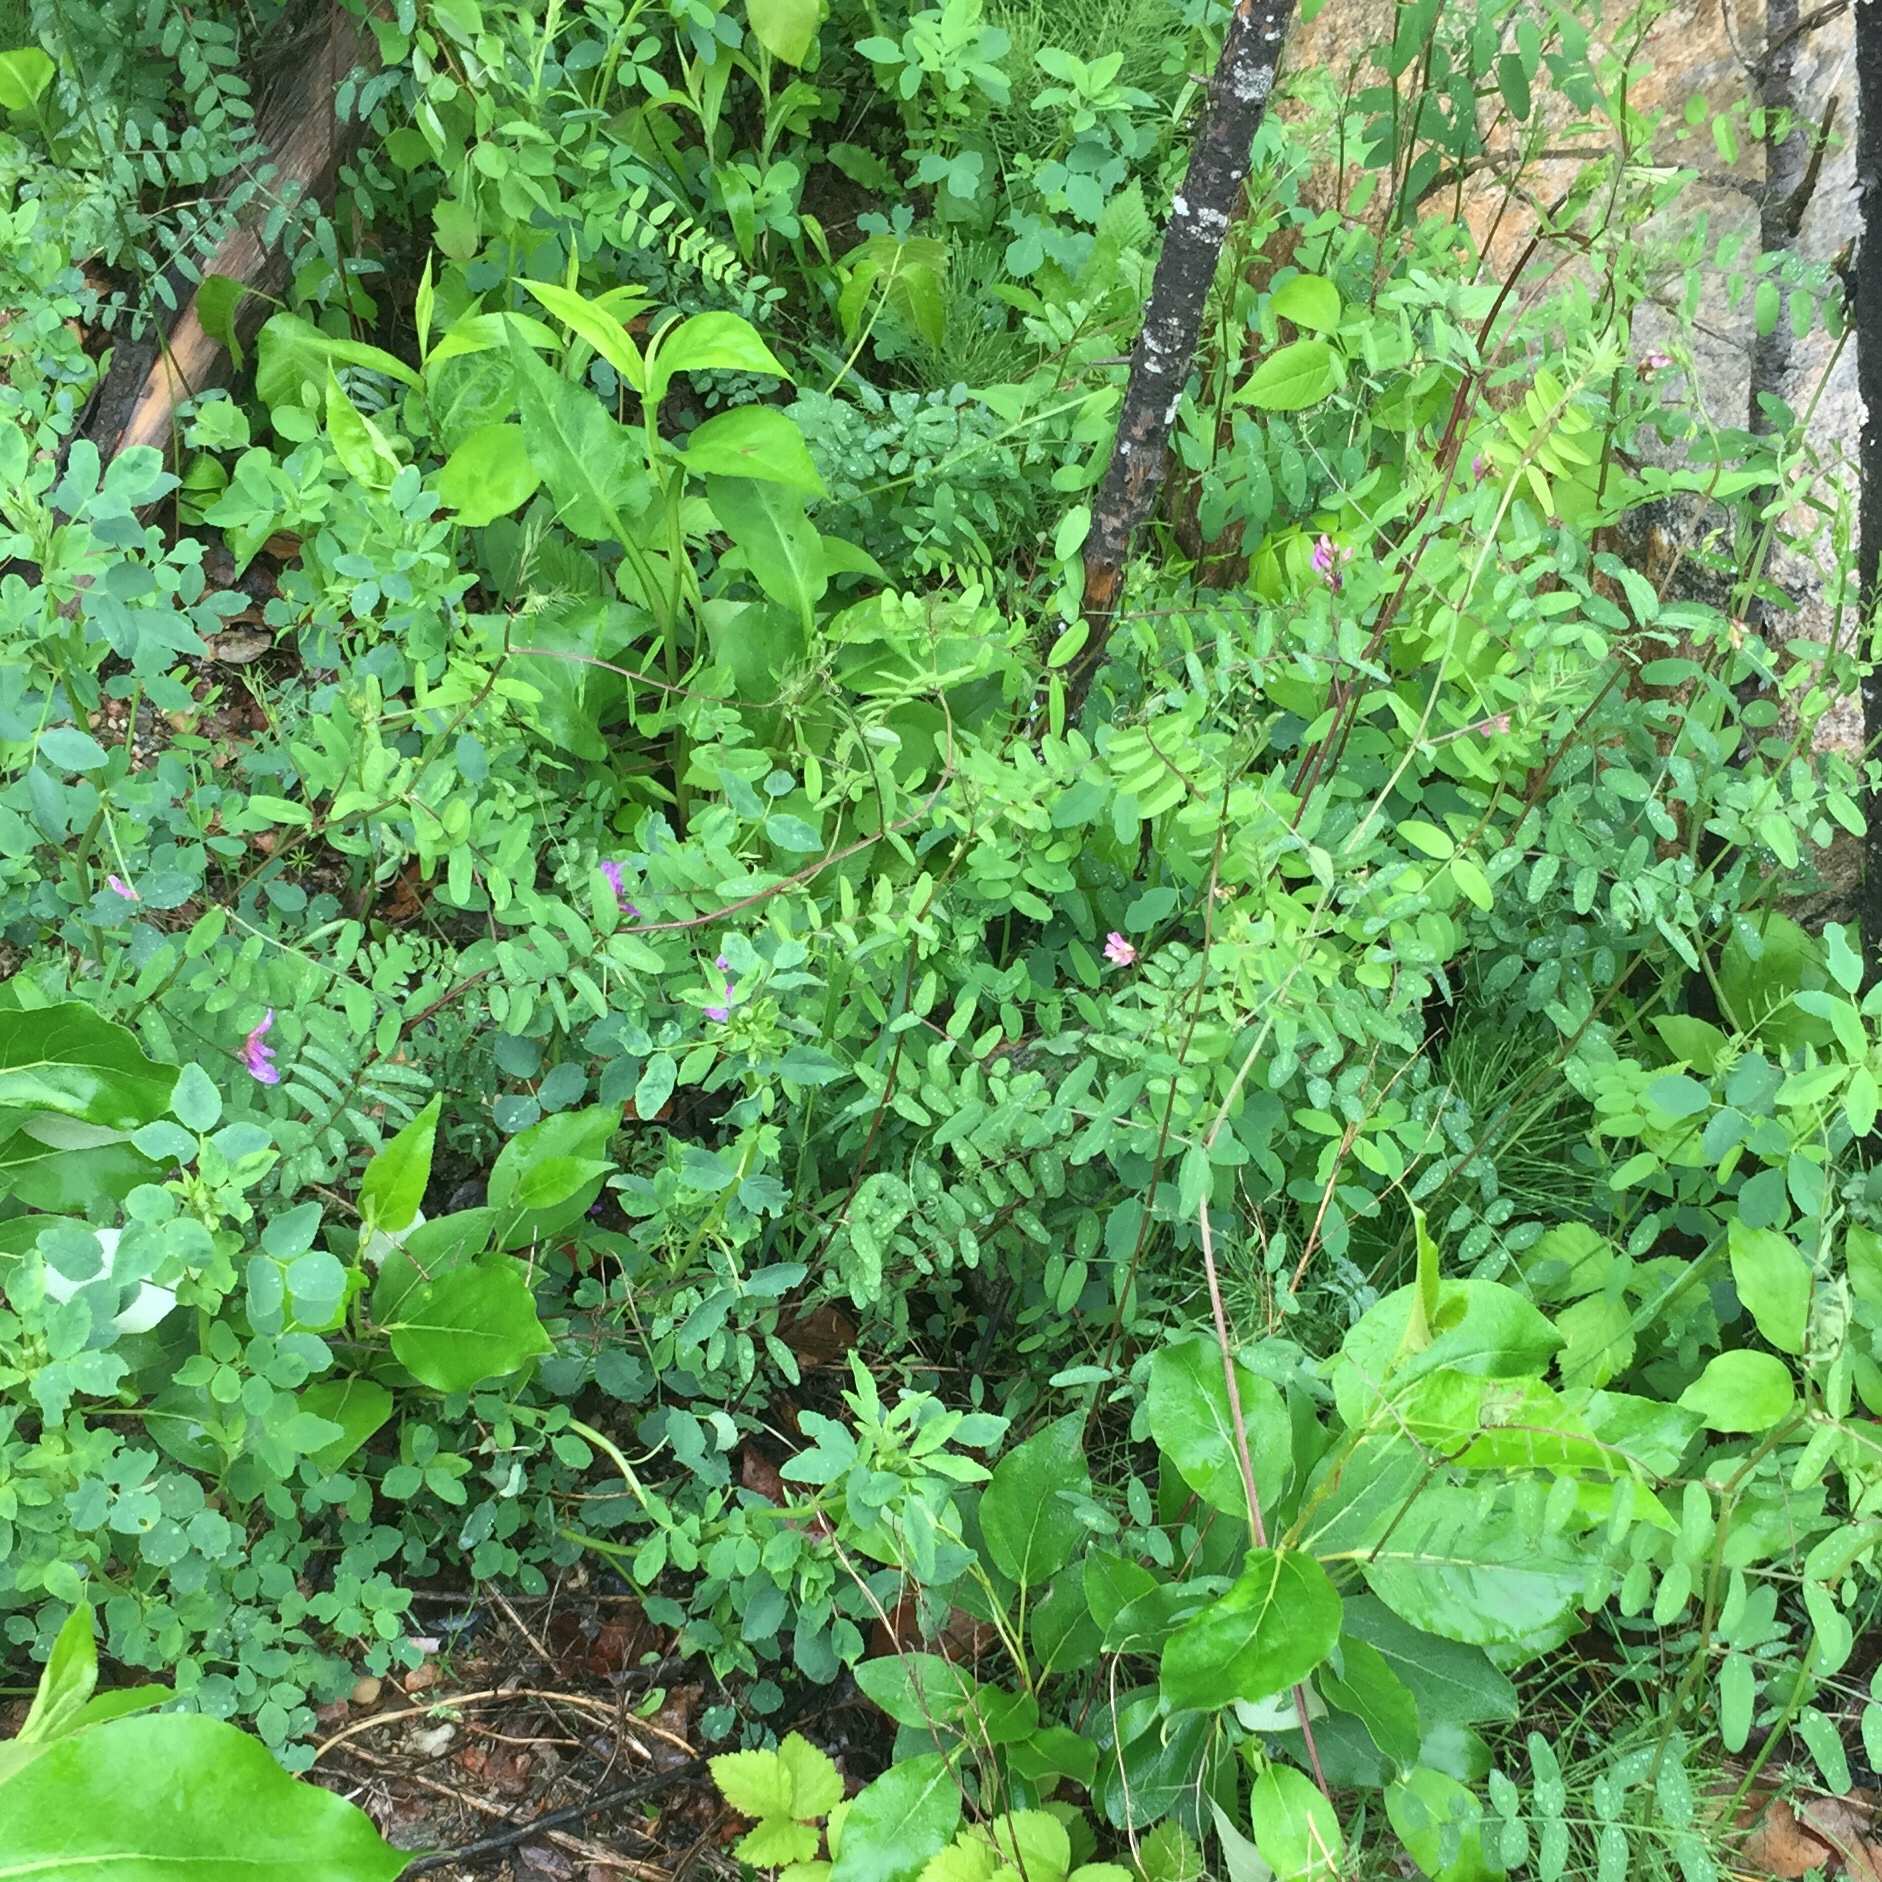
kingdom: Plantae
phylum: Tracheophyta
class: Magnoliopsida
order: Fabales
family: Fabaceae
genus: Vicia
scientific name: Vicia americana
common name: American vetch
